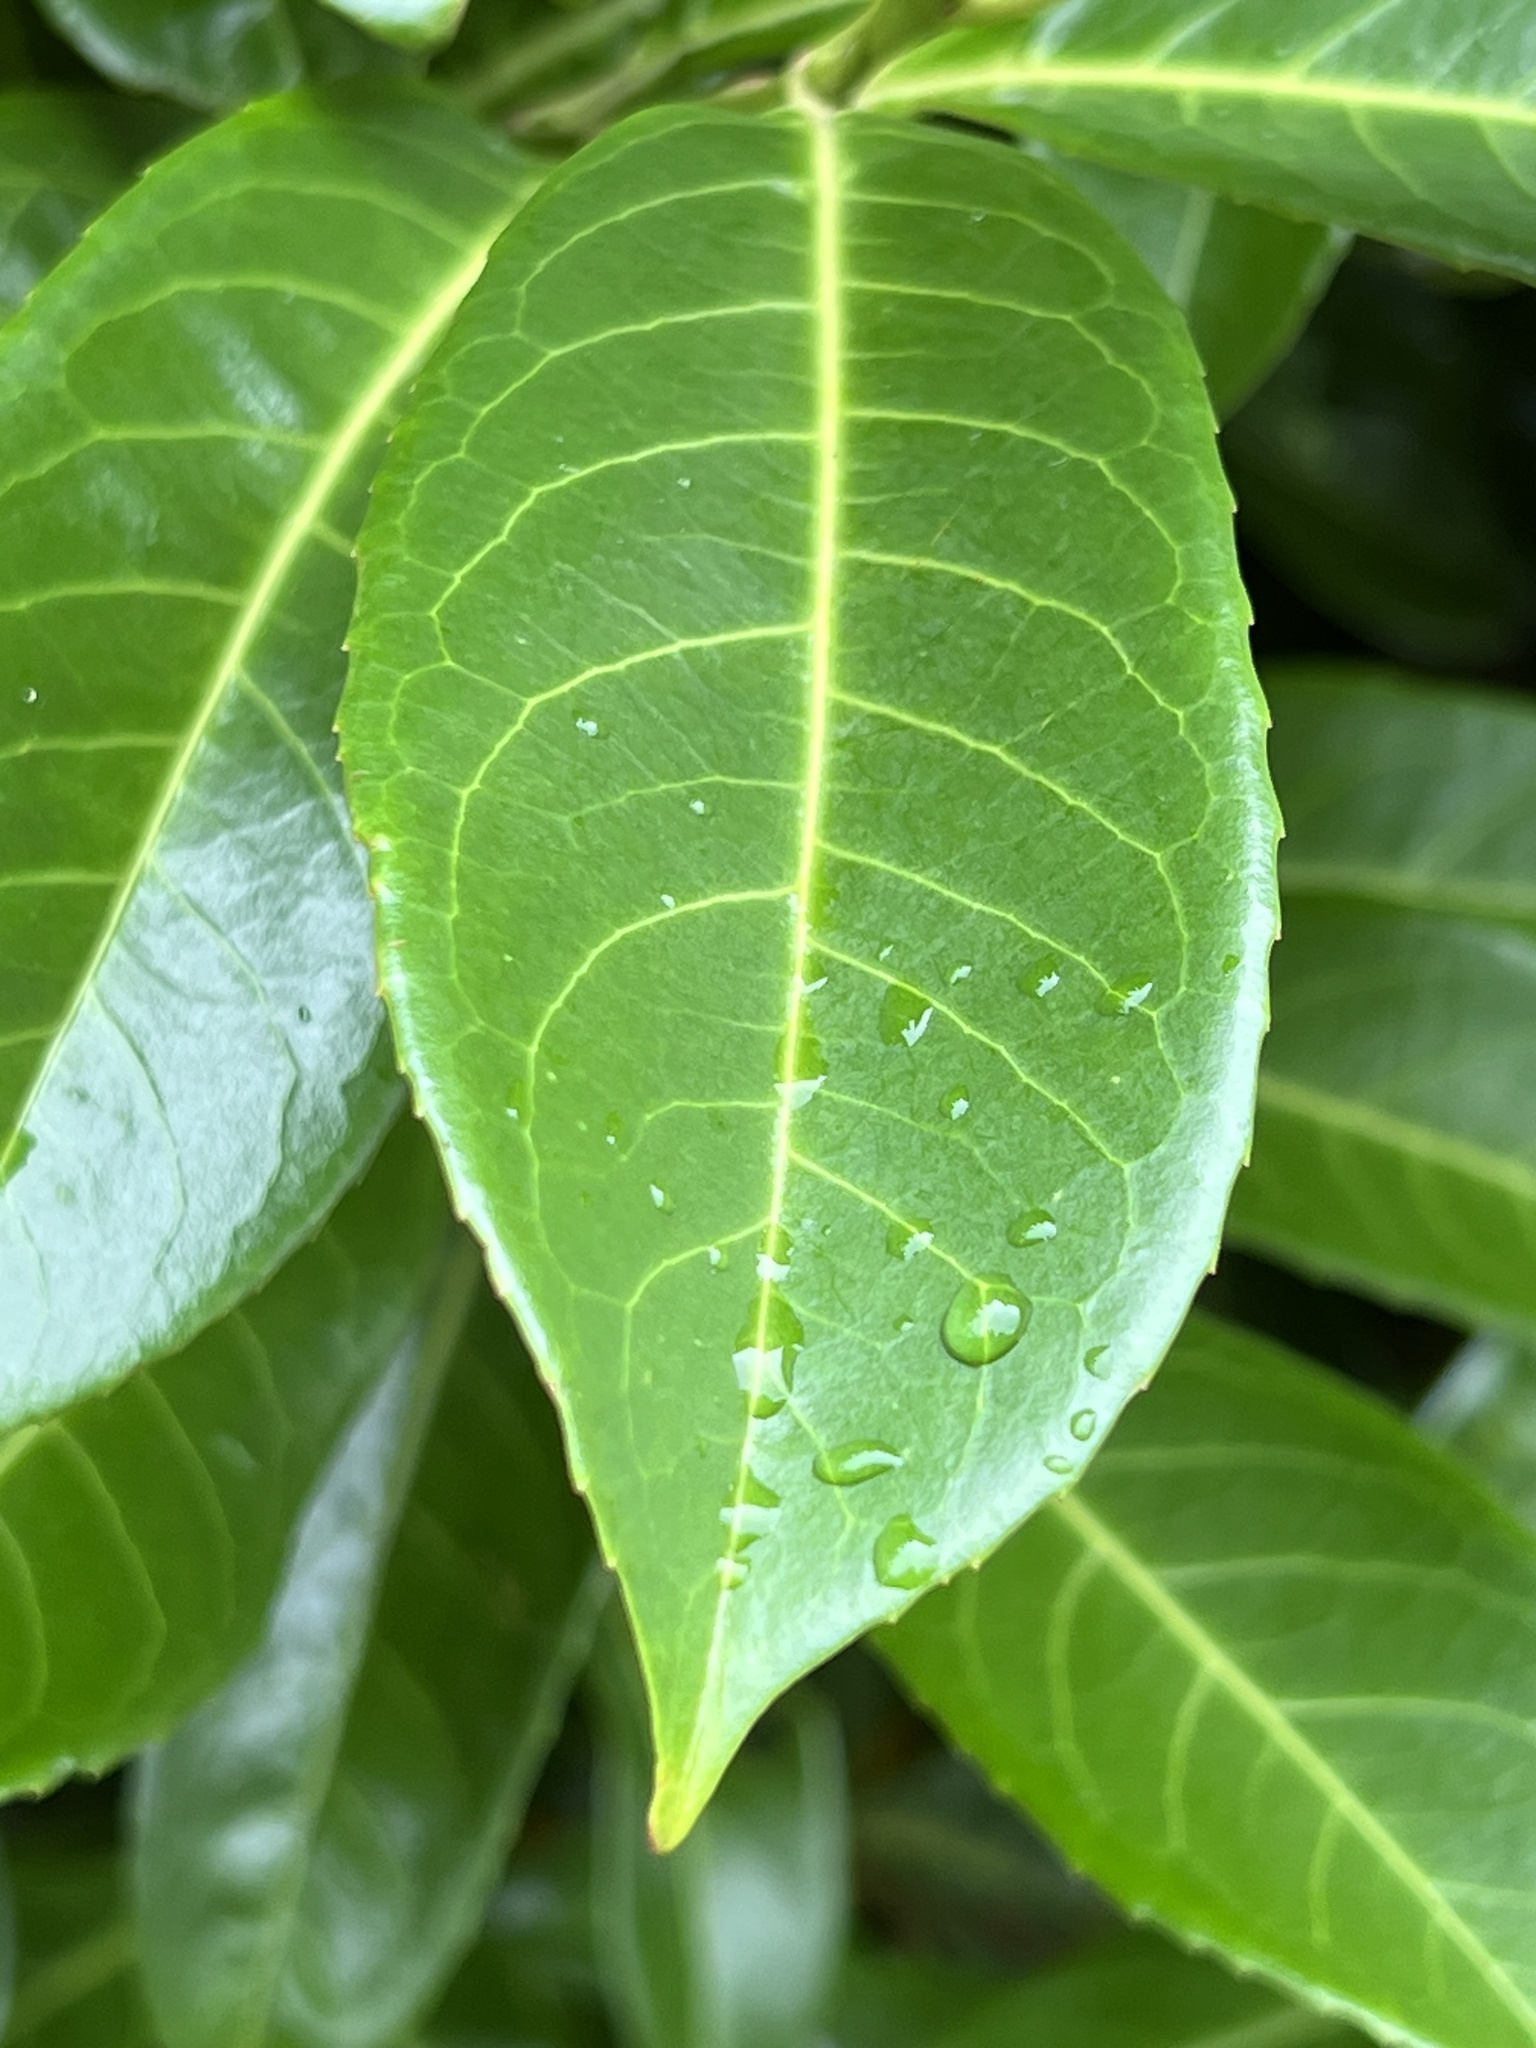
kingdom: Plantae
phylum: Tracheophyta
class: Magnoliopsida
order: Rosales
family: Rosaceae
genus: Prunus
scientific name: Prunus laurocerasus
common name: Cherry laurel
